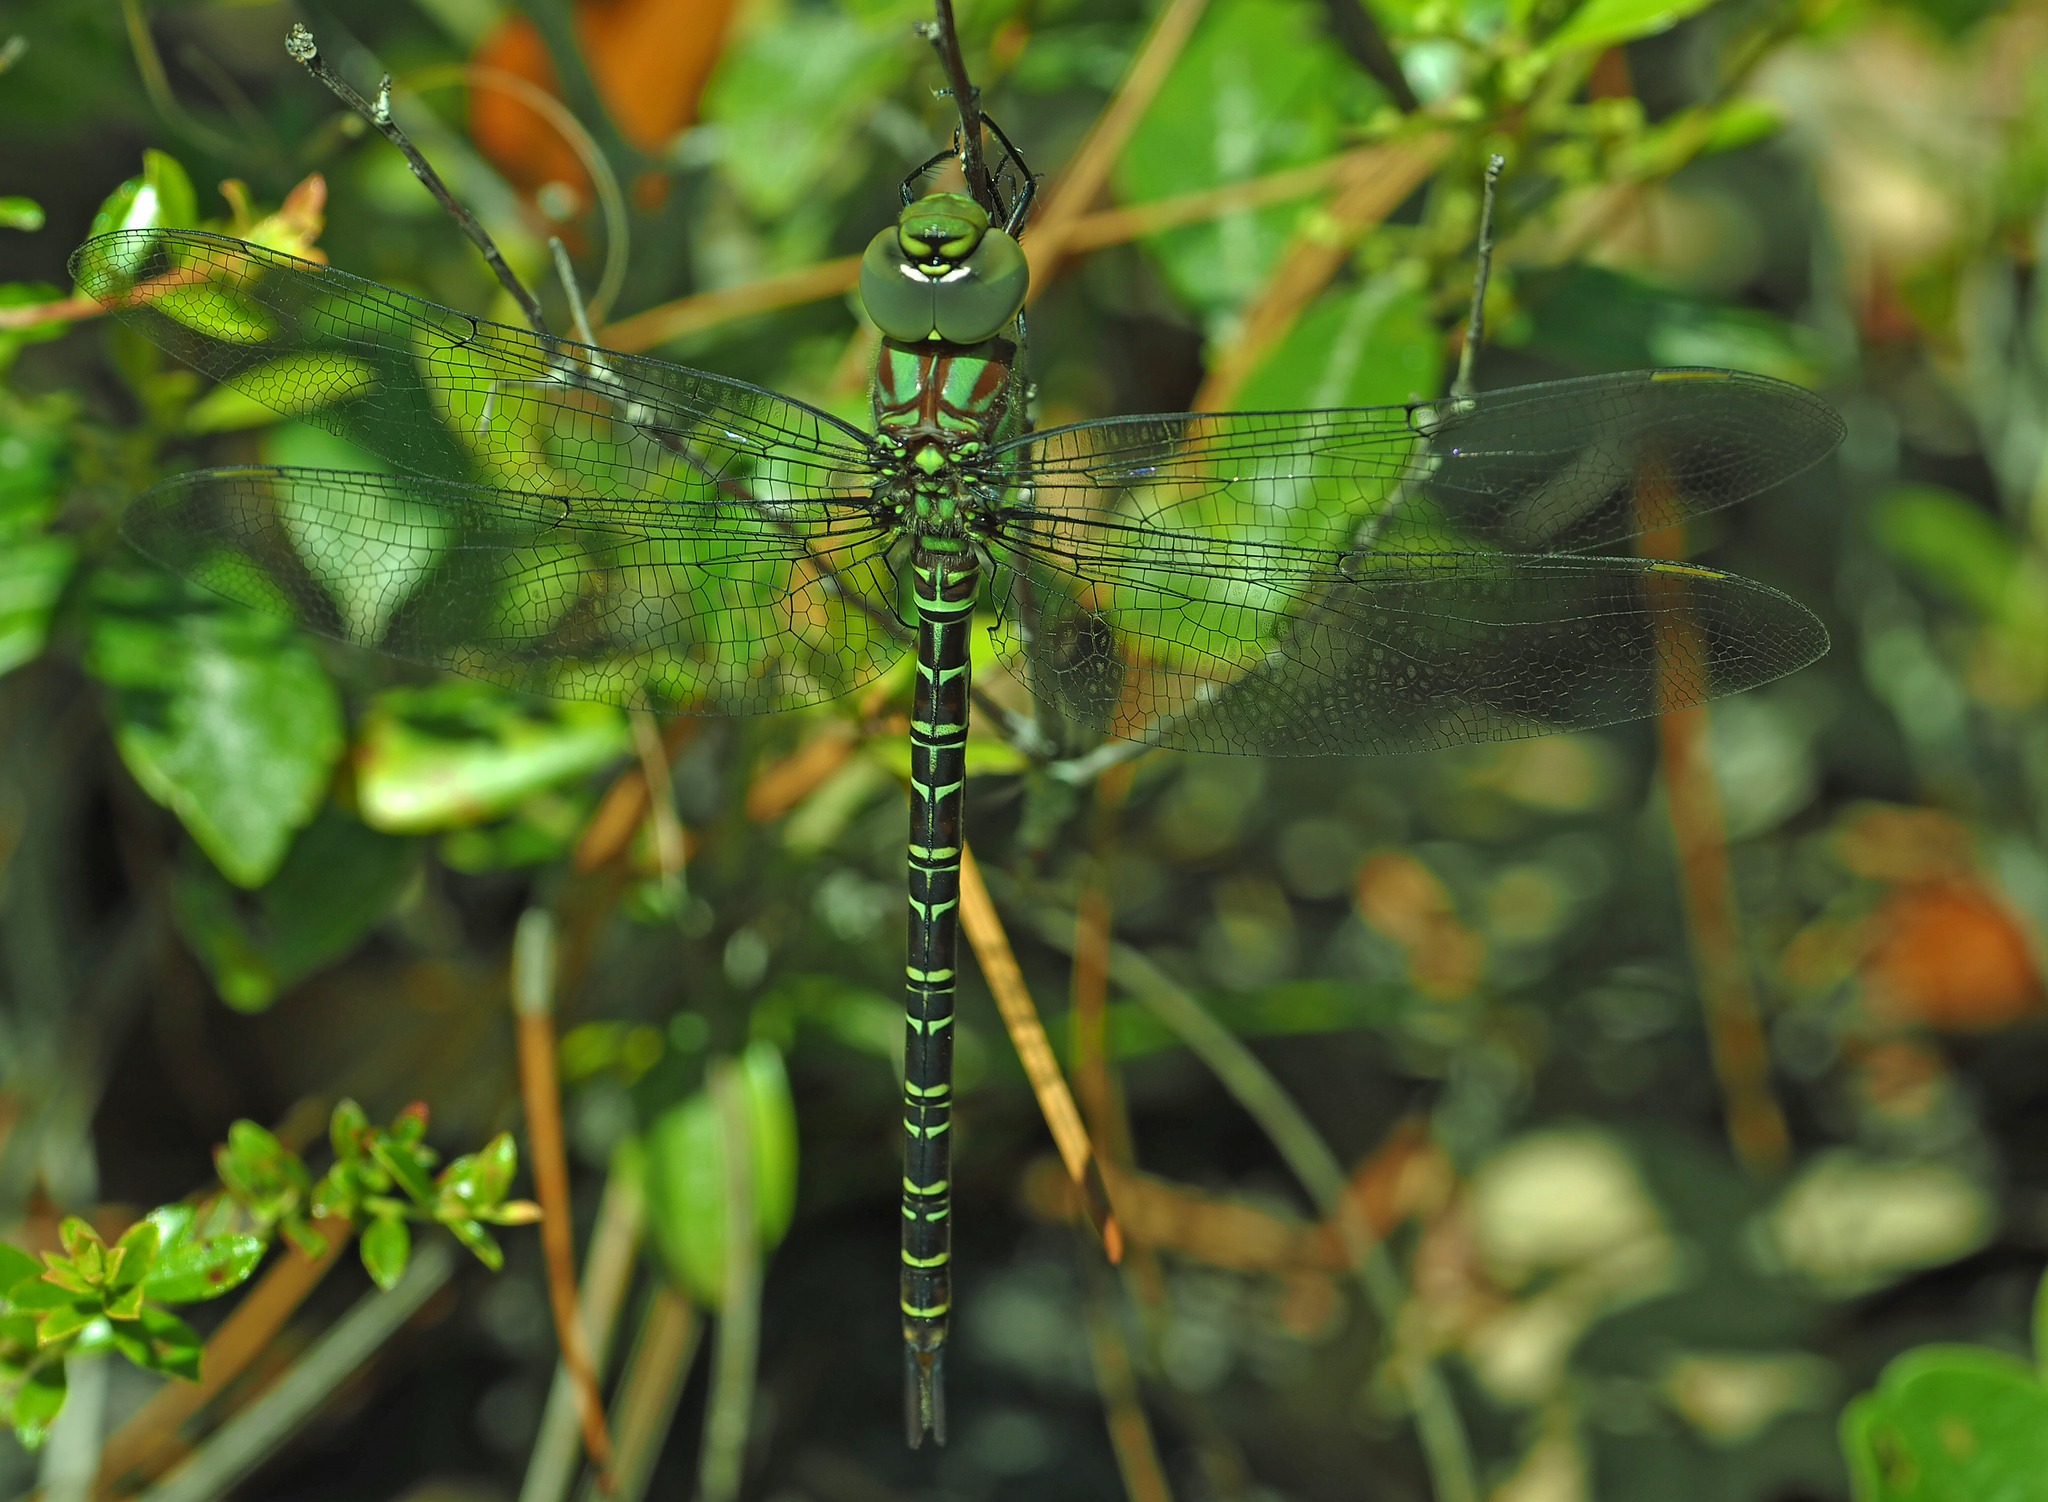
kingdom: Animalia
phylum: Arthropoda
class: Insecta
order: Odonata
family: Aeshnidae
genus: Coryphaeschna
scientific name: Coryphaeschna ingens
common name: Regal darner
